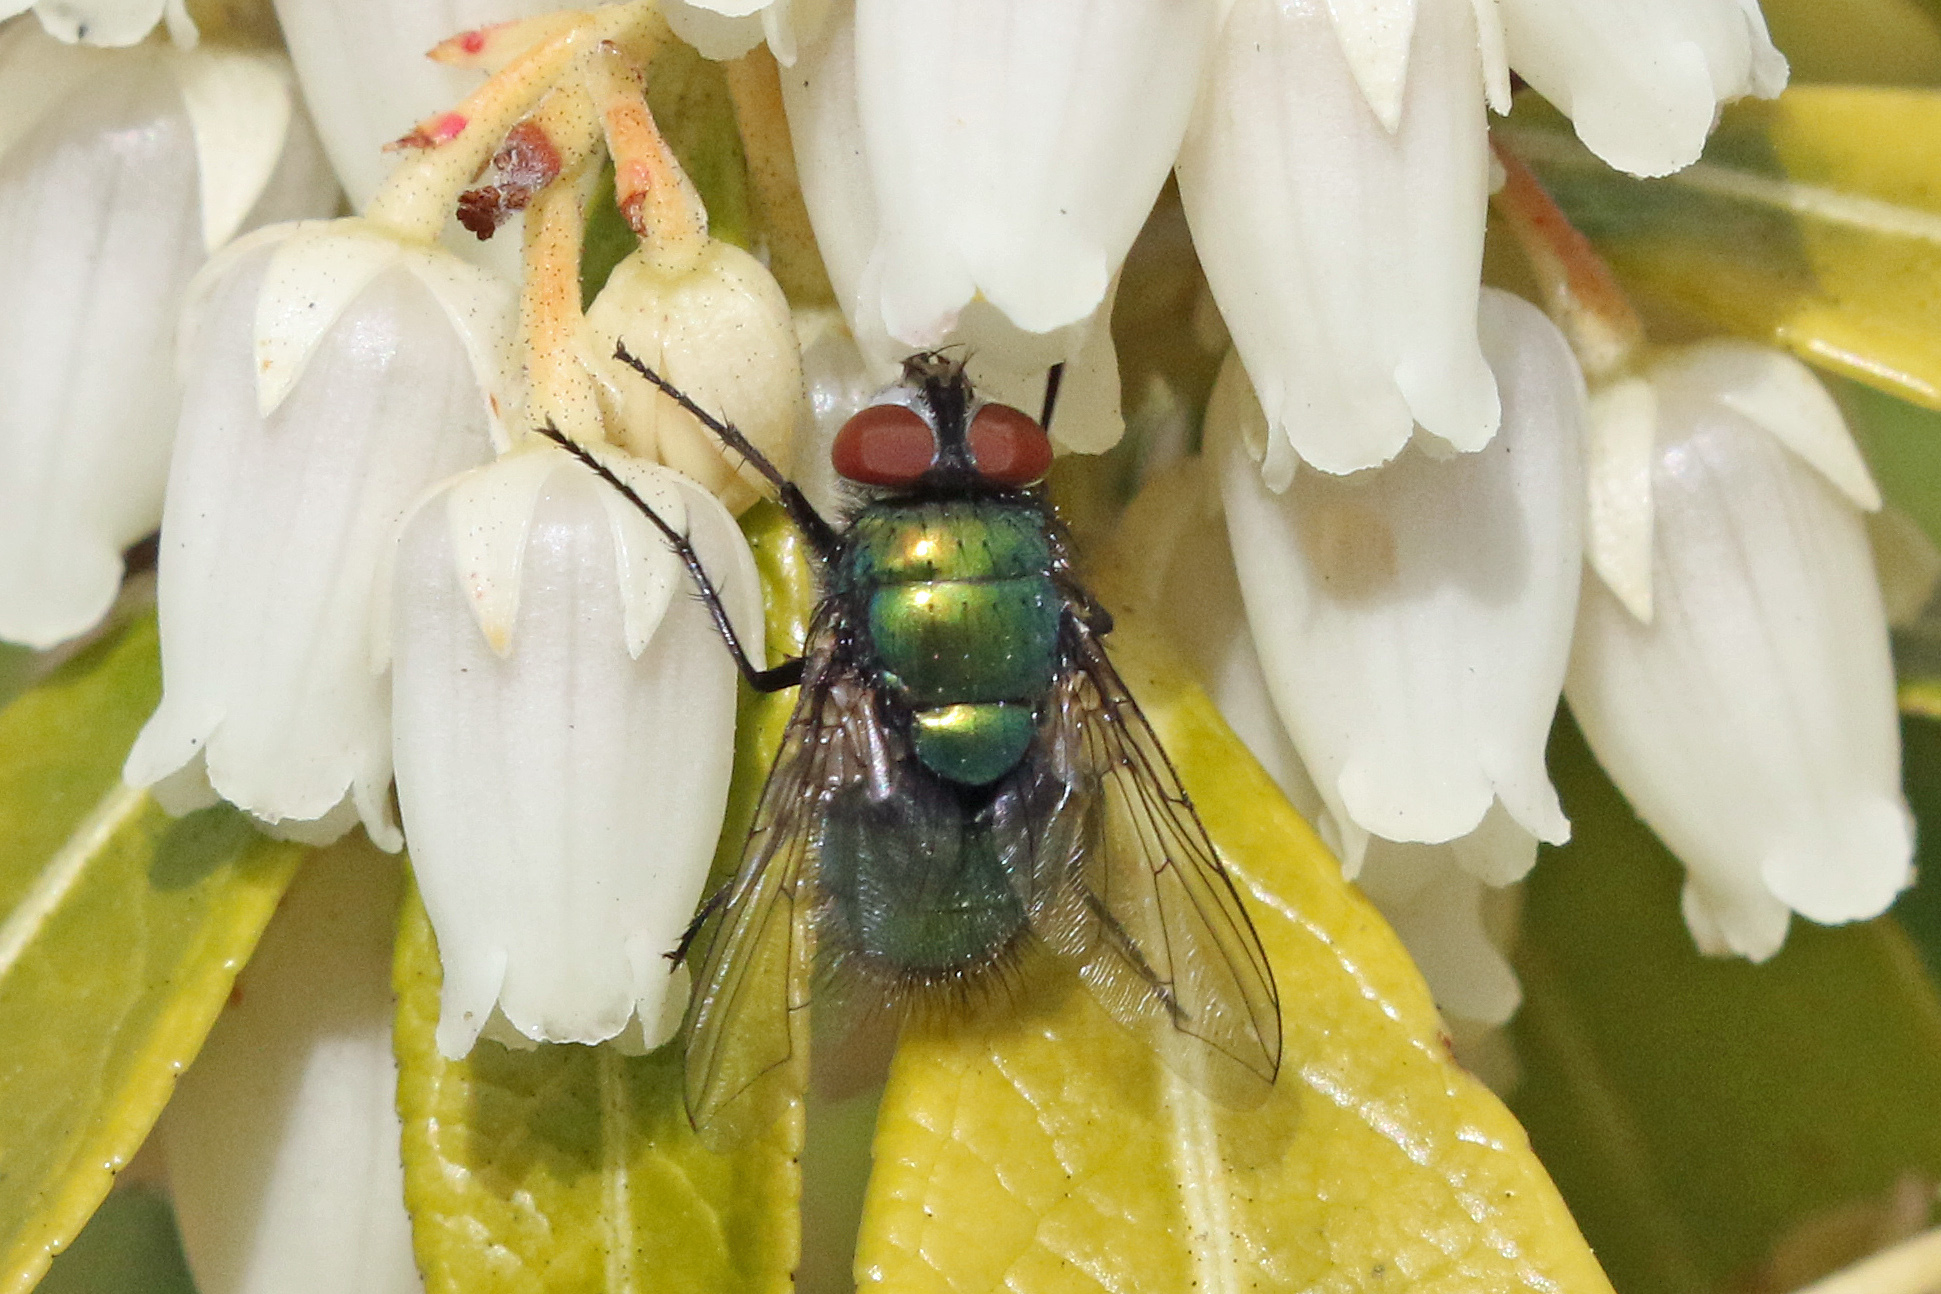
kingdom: Animalia
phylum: Arthropoda
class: Insecta
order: Diptera
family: Calliphoridae
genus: Lucilia
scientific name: Lucilia
